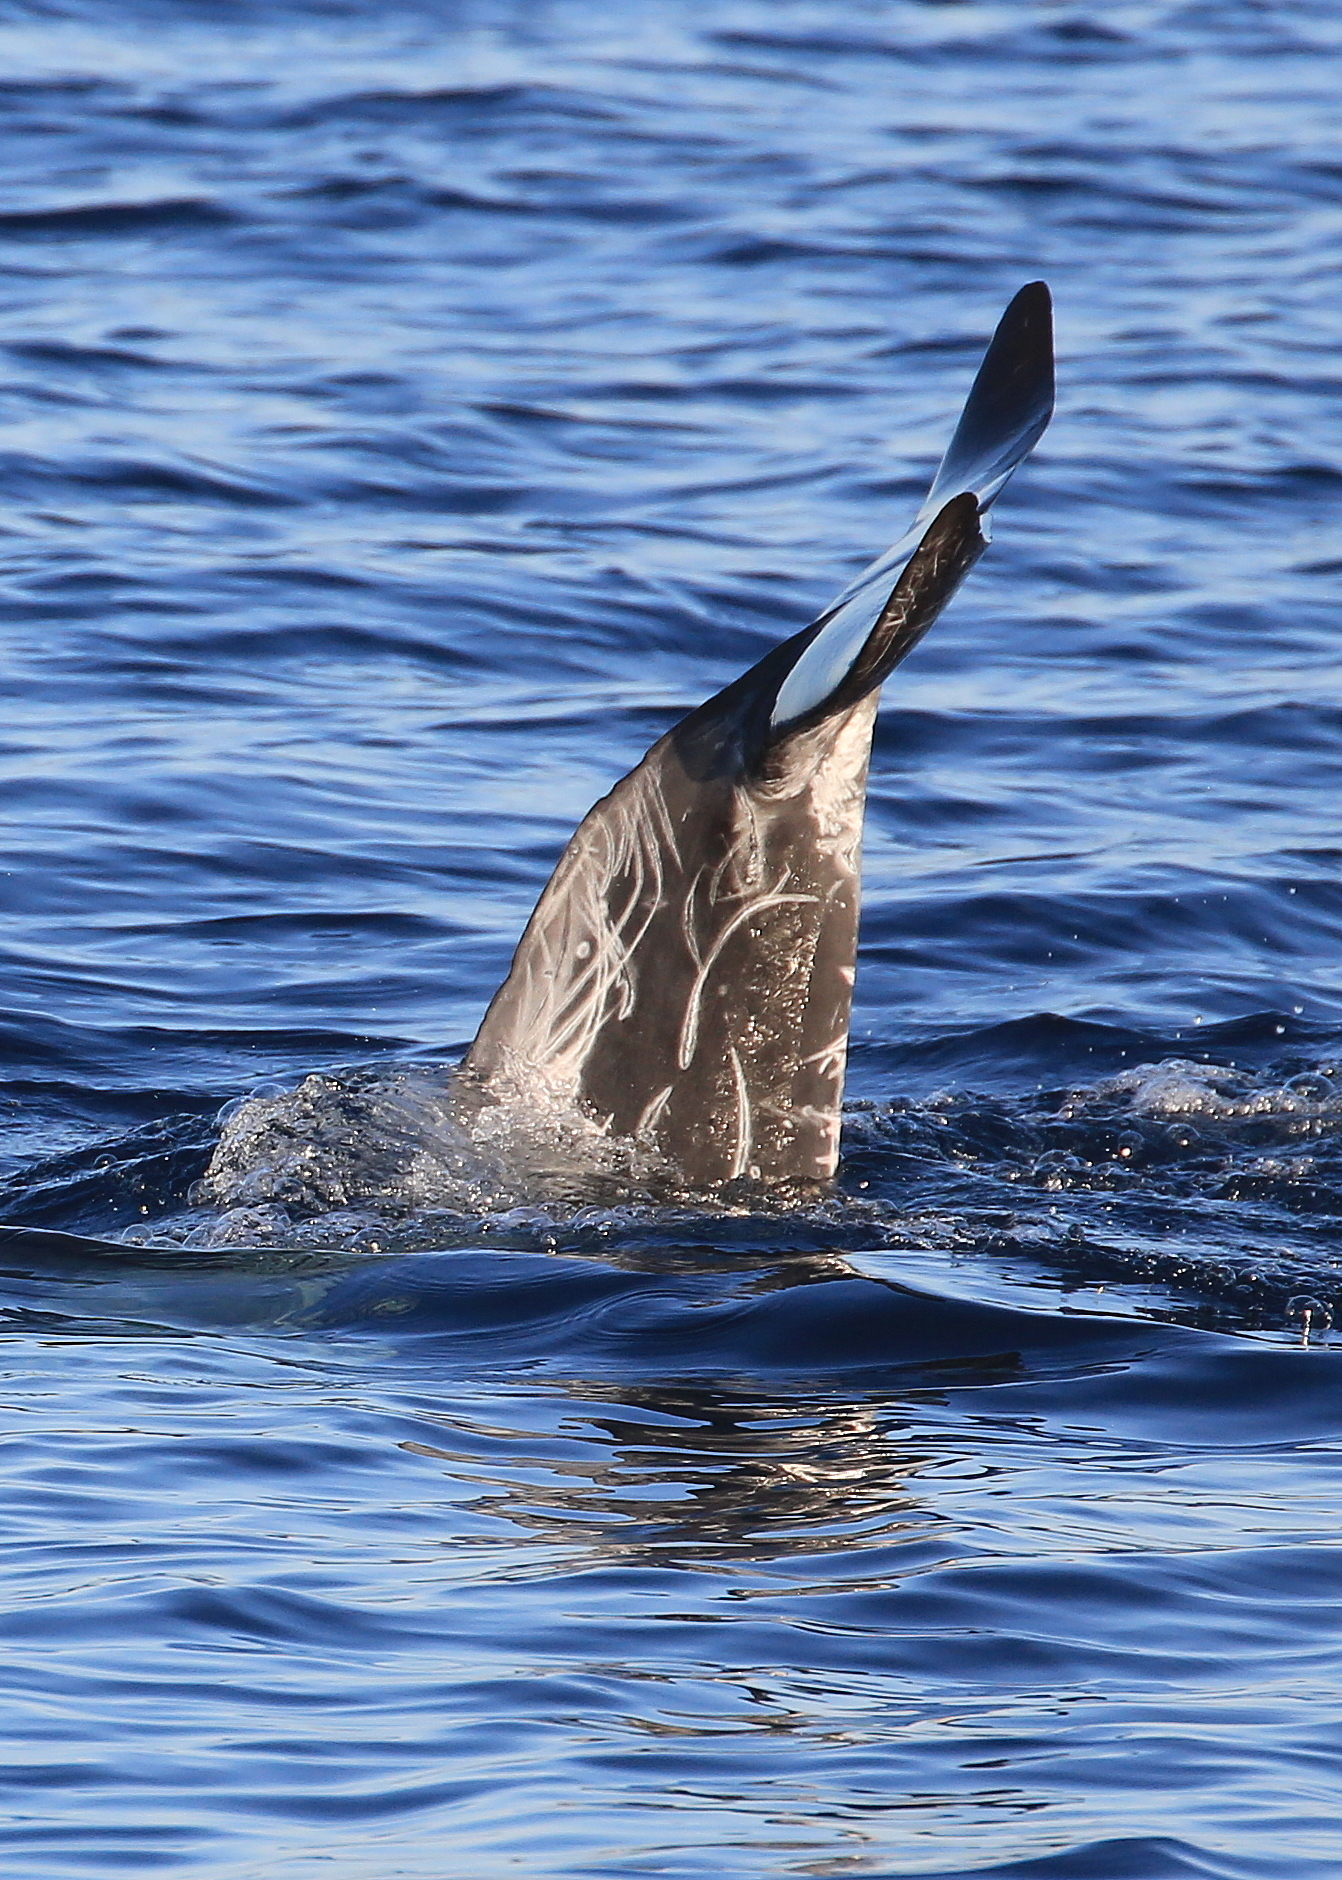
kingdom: Animalia
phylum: Chordata
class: Mammalia
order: Cetacea
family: Delphinidae
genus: Grampus
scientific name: Grampus griseus
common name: Risso's dolphin
